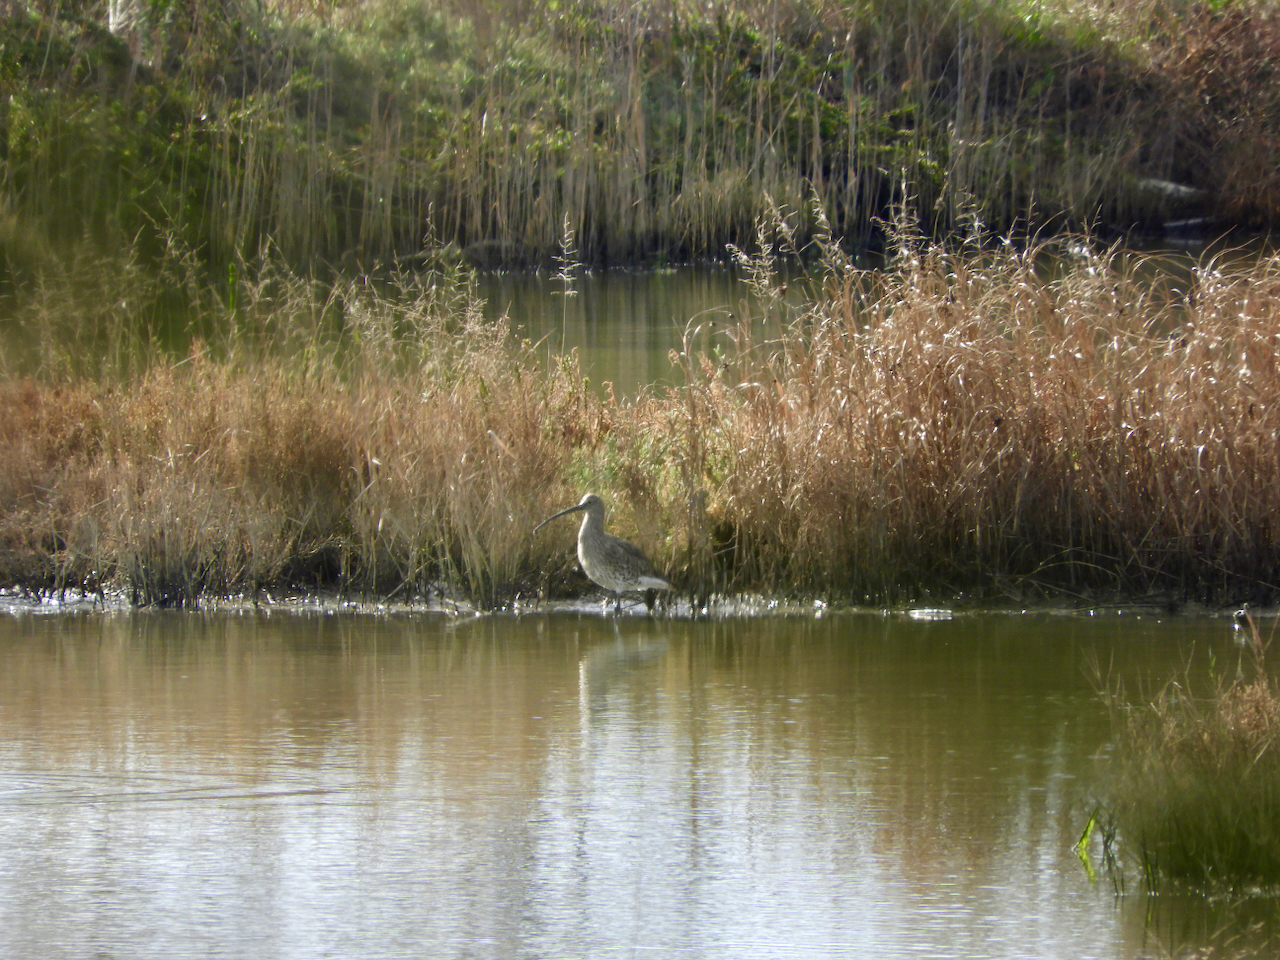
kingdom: Animalia
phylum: Chordata
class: Aves
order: Charadriiformes
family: Scolopacidae
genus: Numenius
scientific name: Numenius arquata
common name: Eurasian curlew
